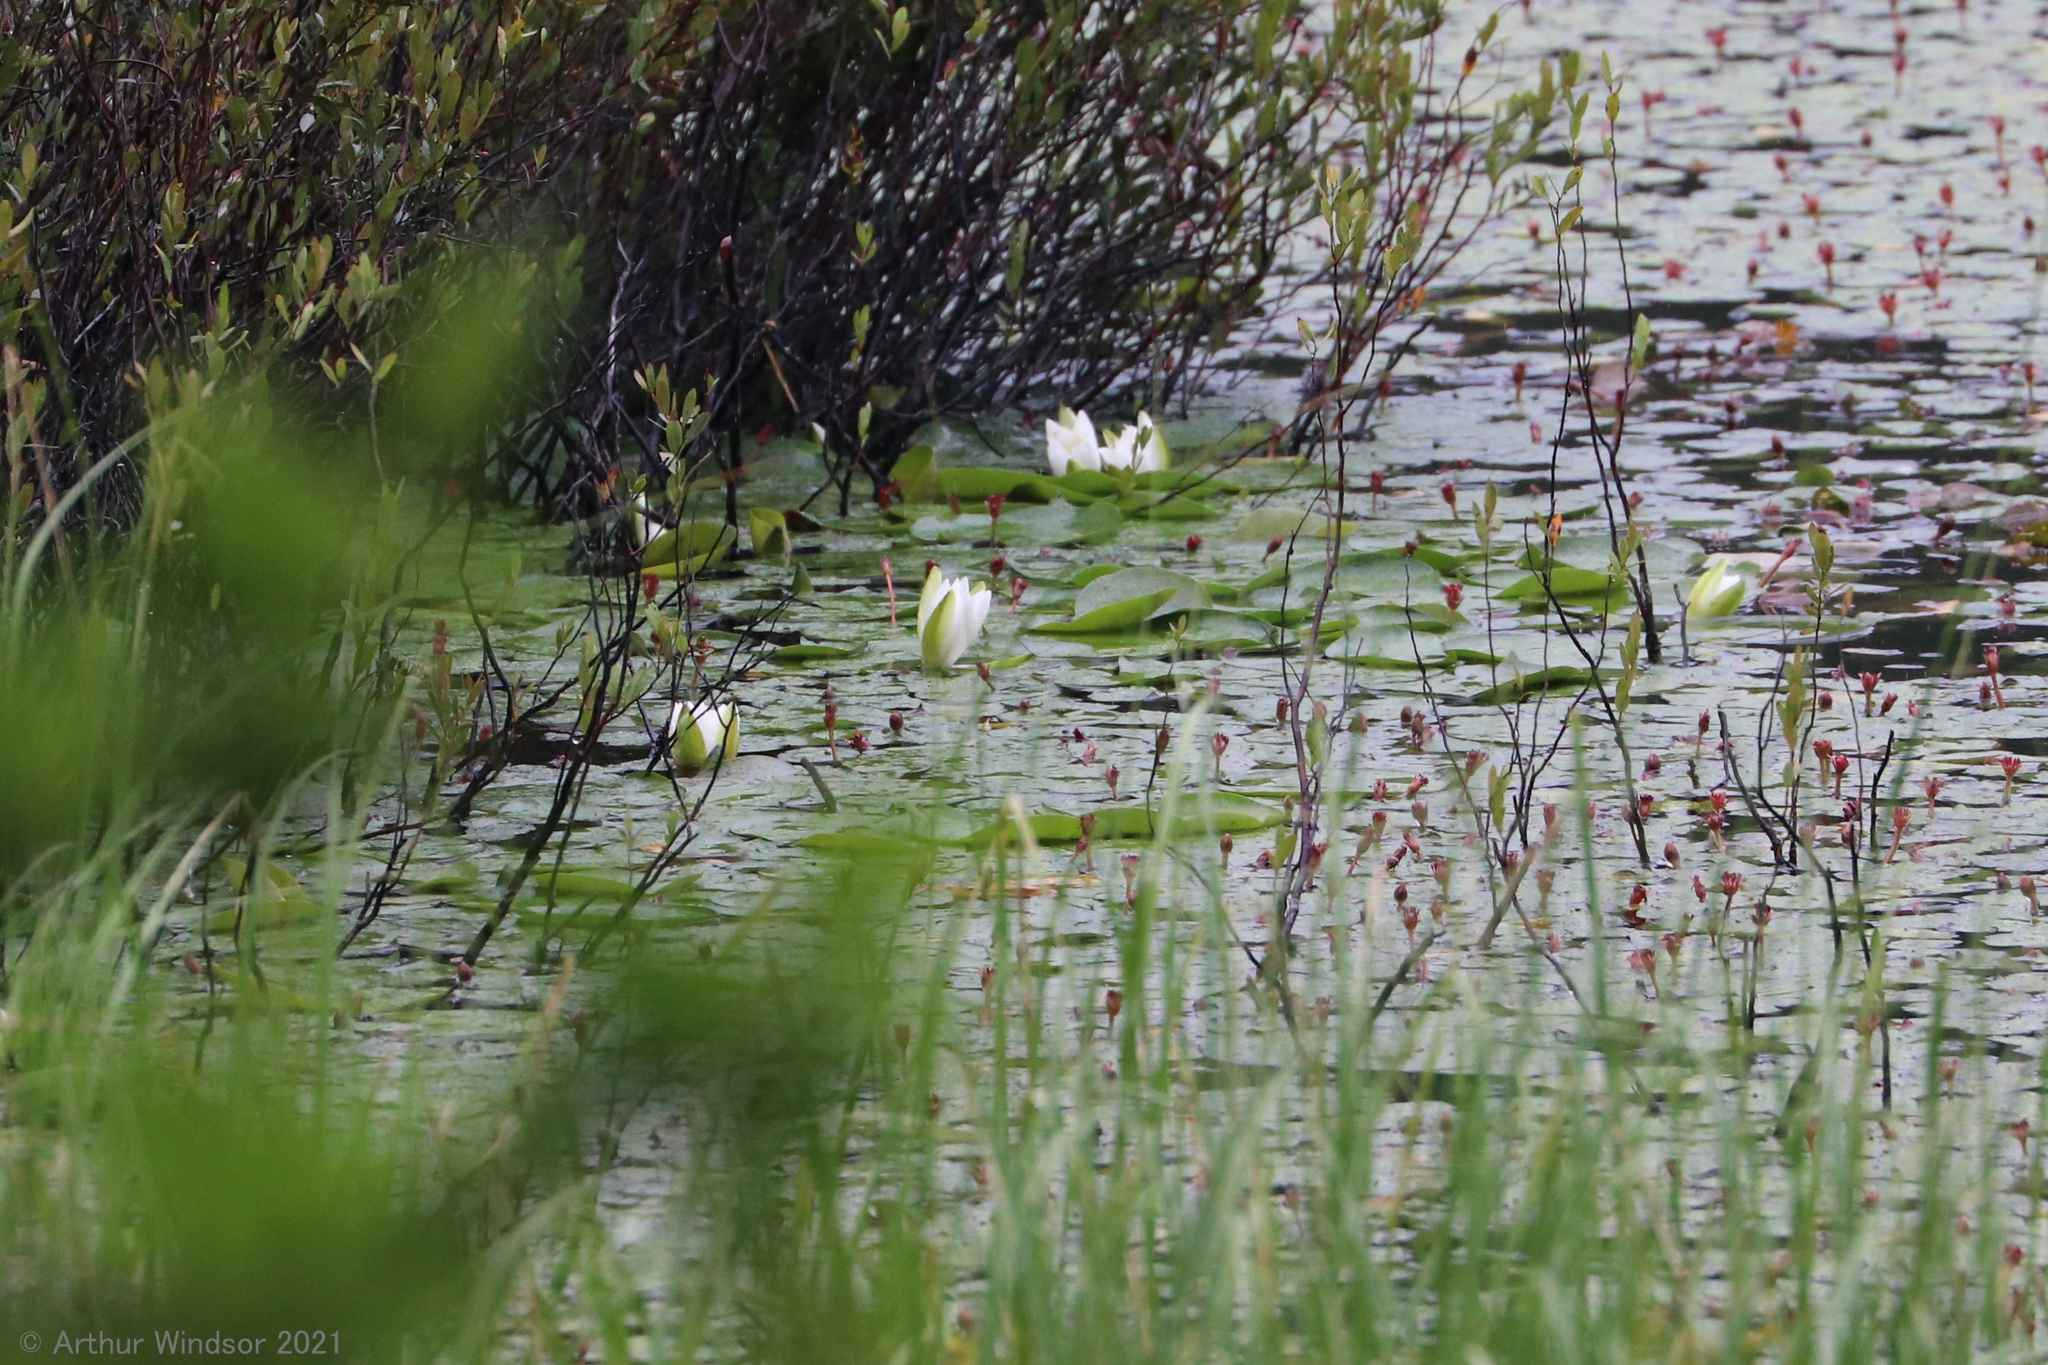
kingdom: Plantae
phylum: Tracheophyta
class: Magnoliopsida
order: Nymphaeales
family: Nymphaeaceae
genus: Nymphaea
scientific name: Nymphaea odorata
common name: Fragrant water-lily
